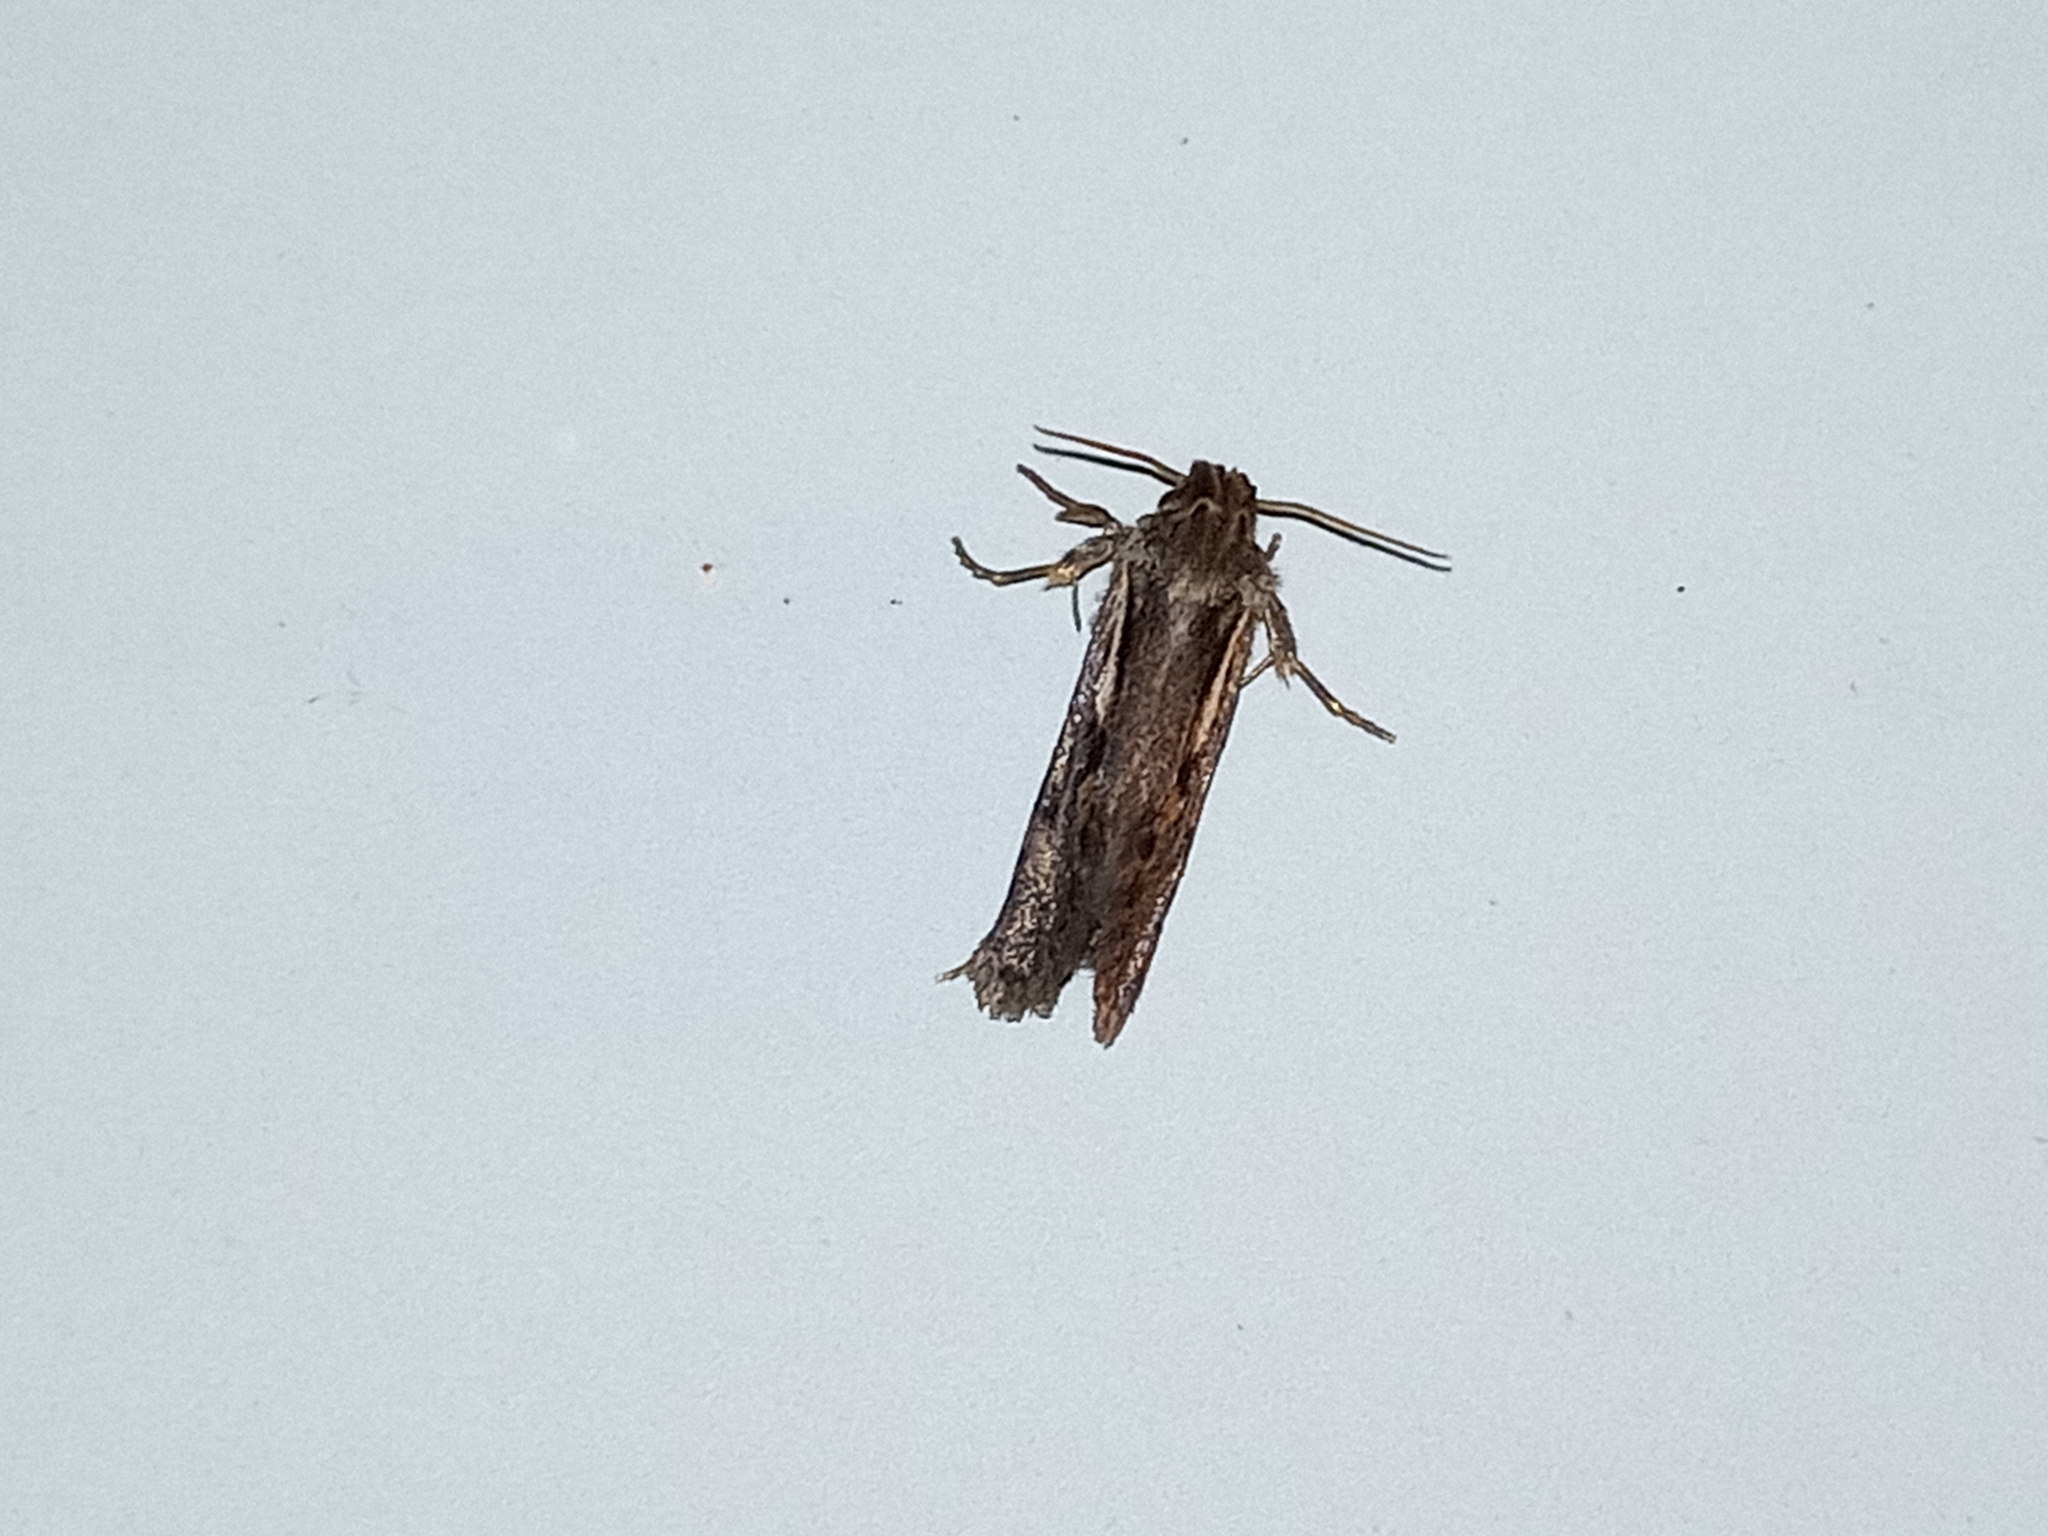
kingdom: Animalia
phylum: Arthropoda
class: Insecta
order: Lepidoptera
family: Tineidae
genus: Acrolophus
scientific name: Acrolophus popeanella
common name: Clemens' grass tubeworm moth
